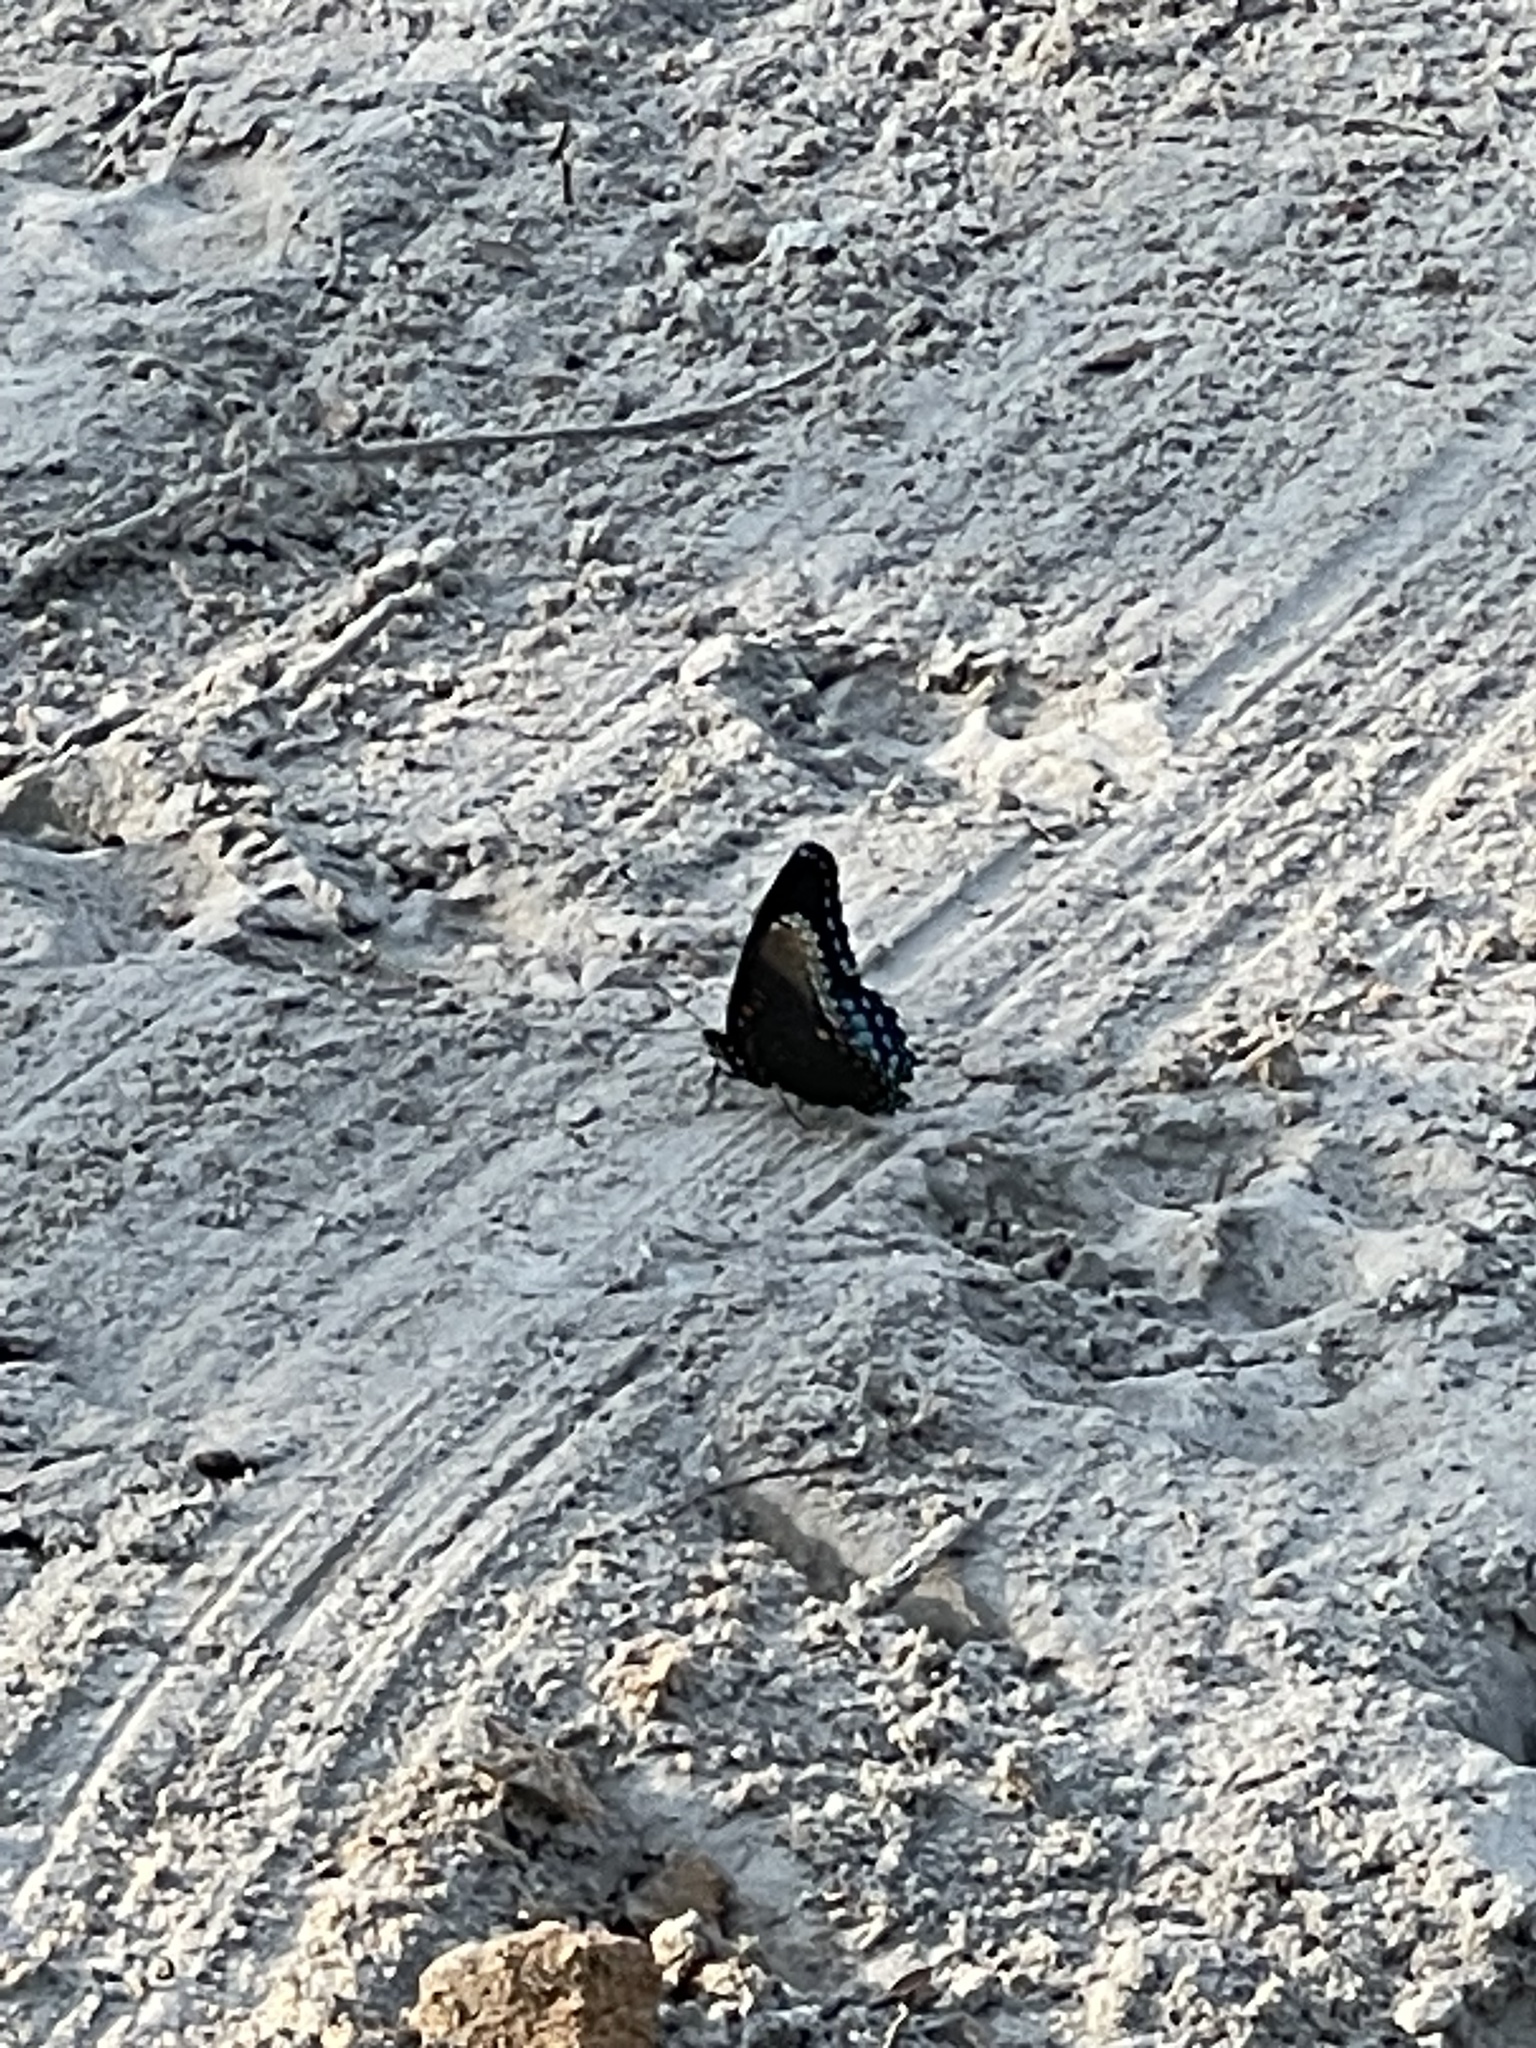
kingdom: Animalia
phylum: Arthropoda
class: Insecta
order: Lepidoptera
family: Nymphalidae
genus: Limenitis
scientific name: Limenitis astyanax
